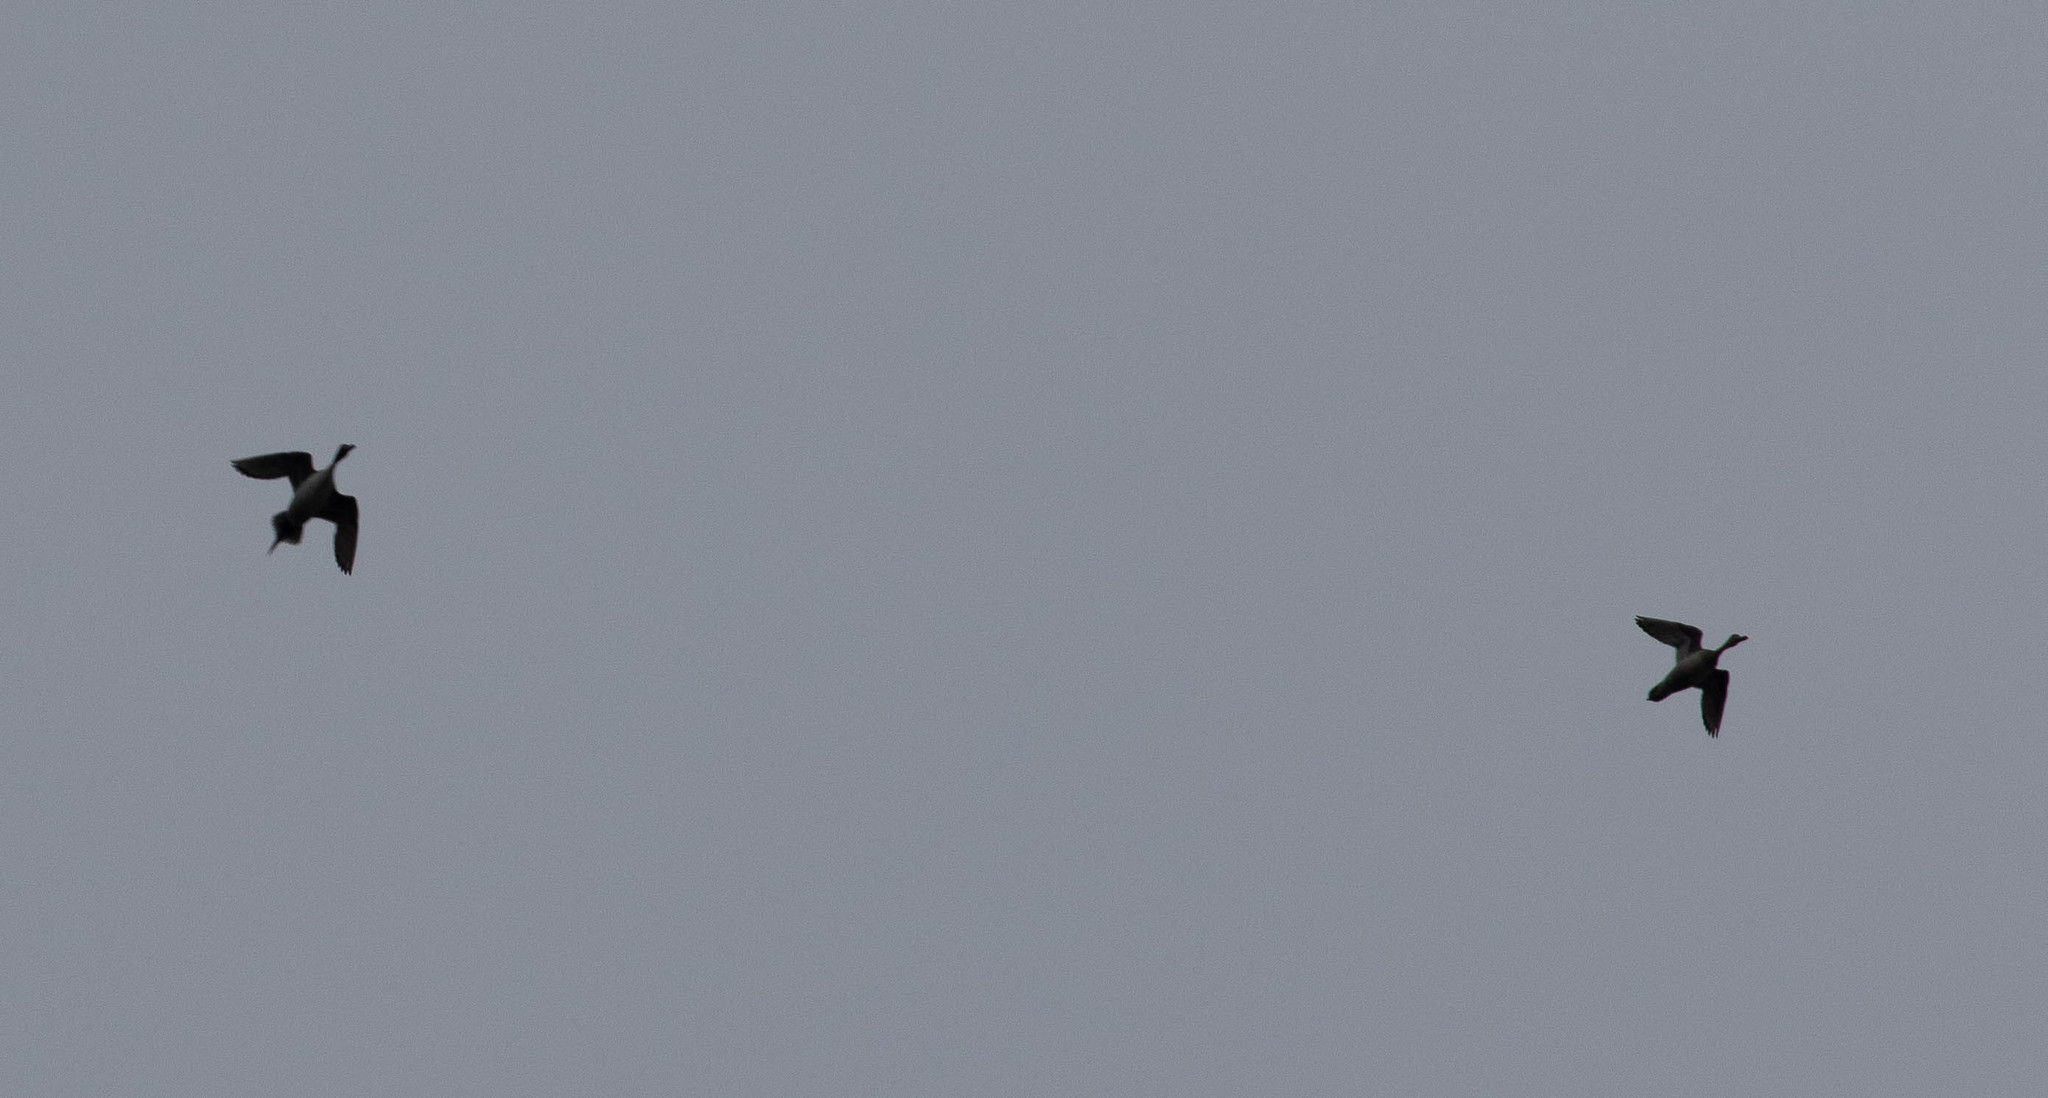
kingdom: Animalia
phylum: Chordata
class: Aves
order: Anseriformes
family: Anatidae
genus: Anas
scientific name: Anas acuta
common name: Northern pintail
